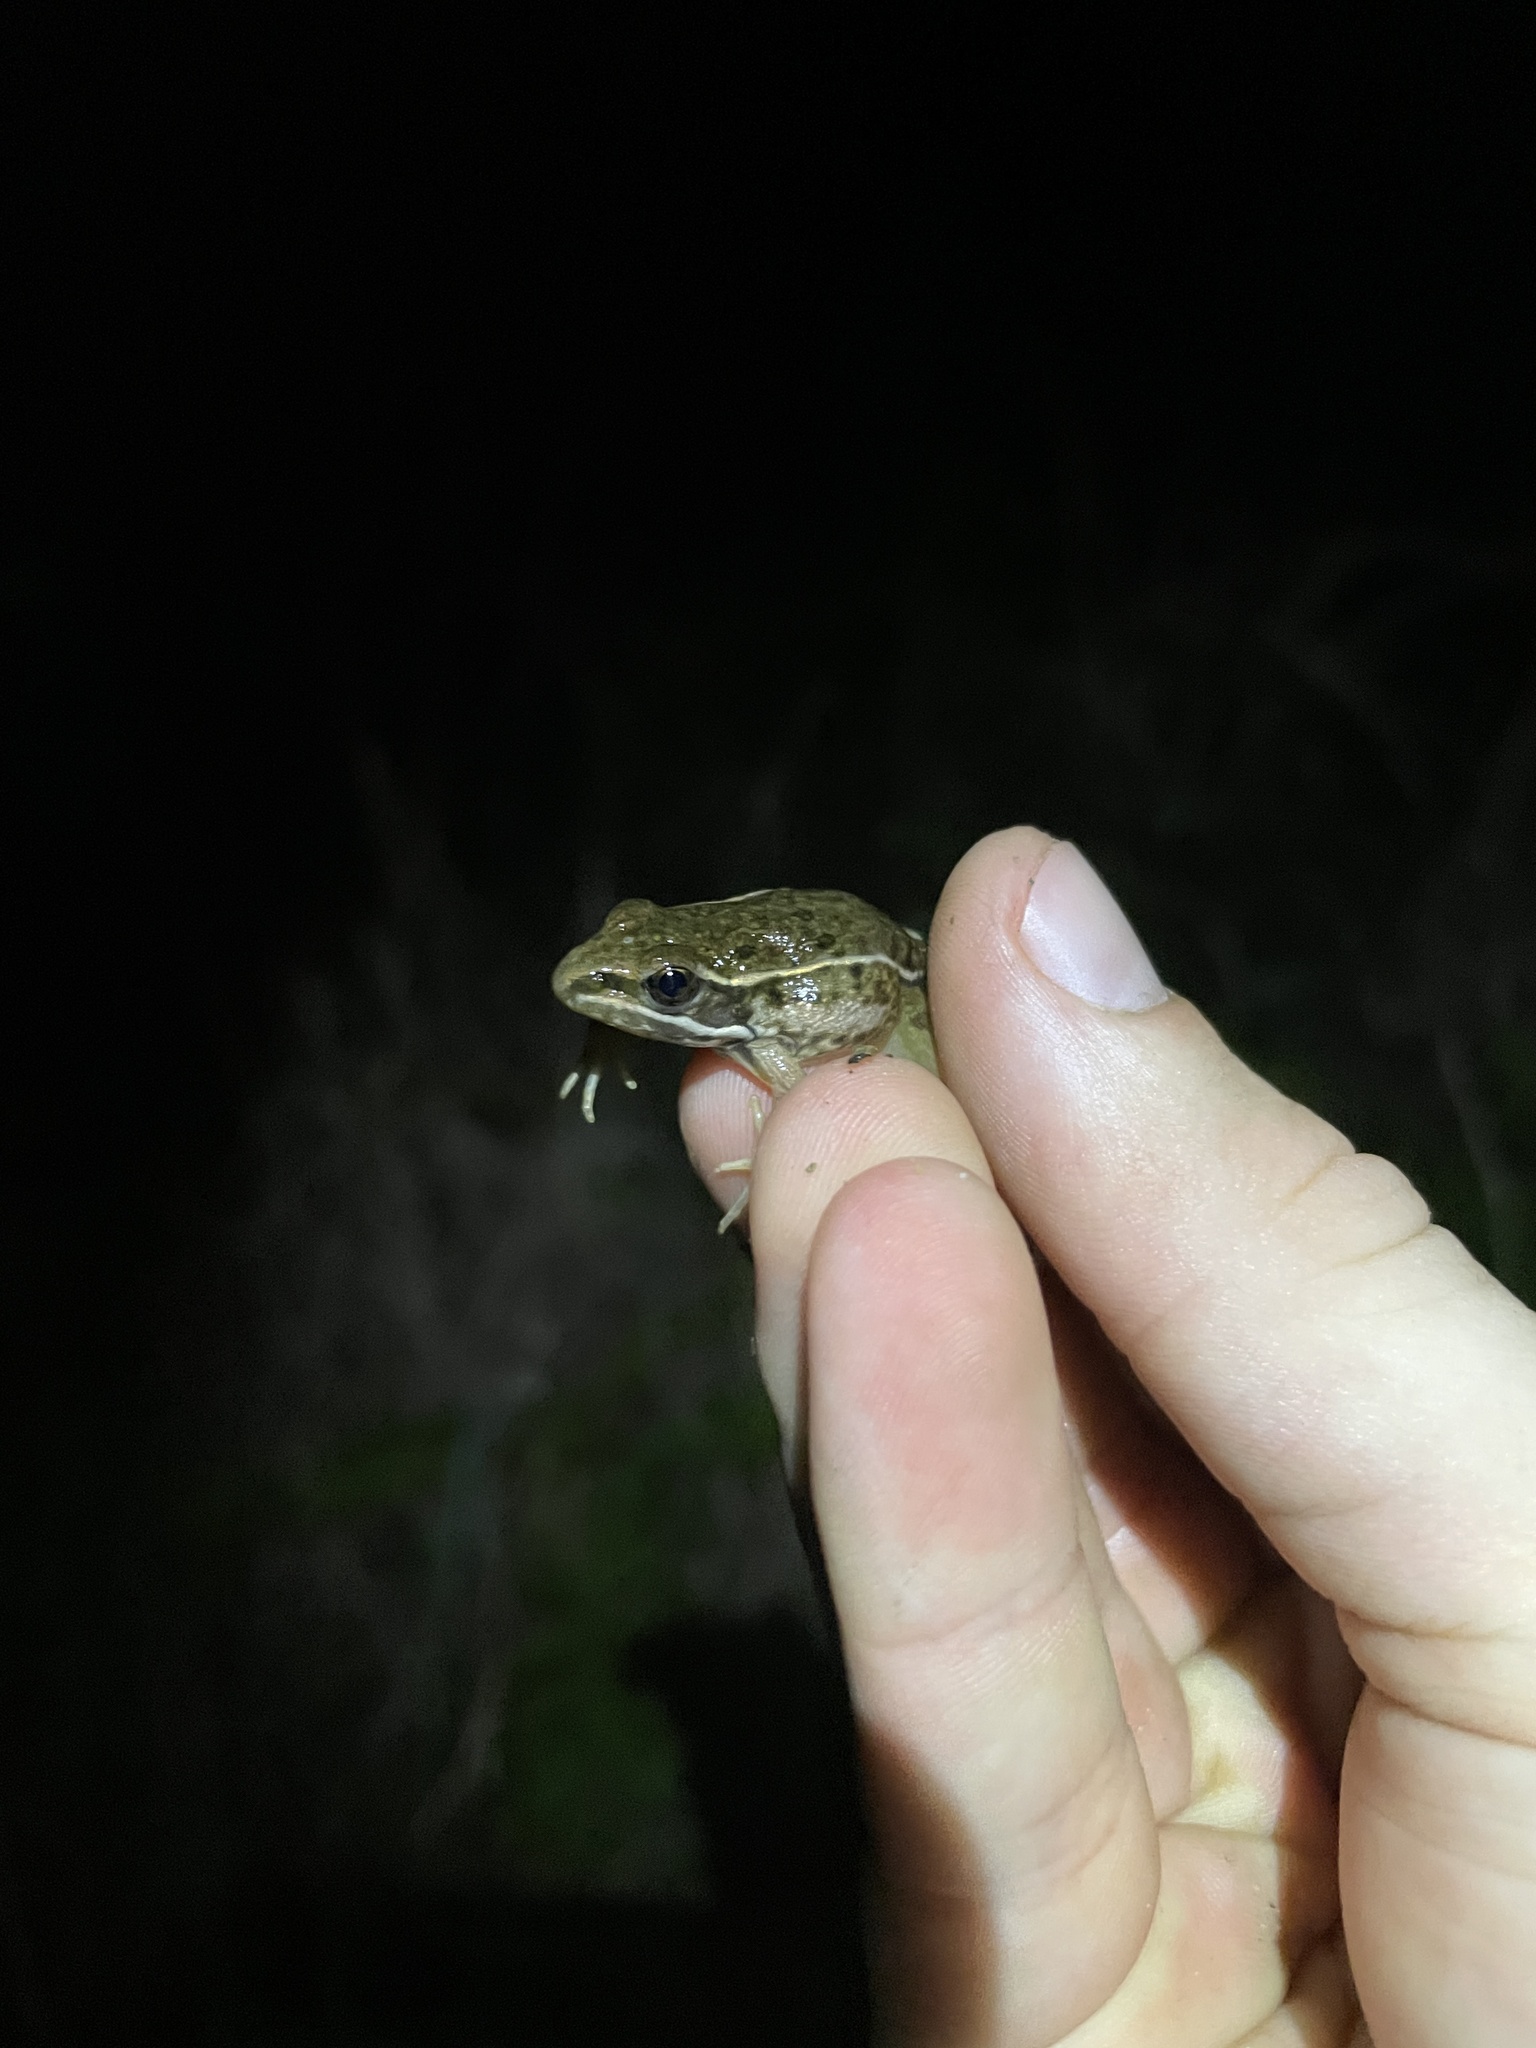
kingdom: Animalia
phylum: Chordata
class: Amphibia
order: Anura
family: Ranidae
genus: Lithobates
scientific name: Lithobates sphenocephalus
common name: Southern leopard frog
